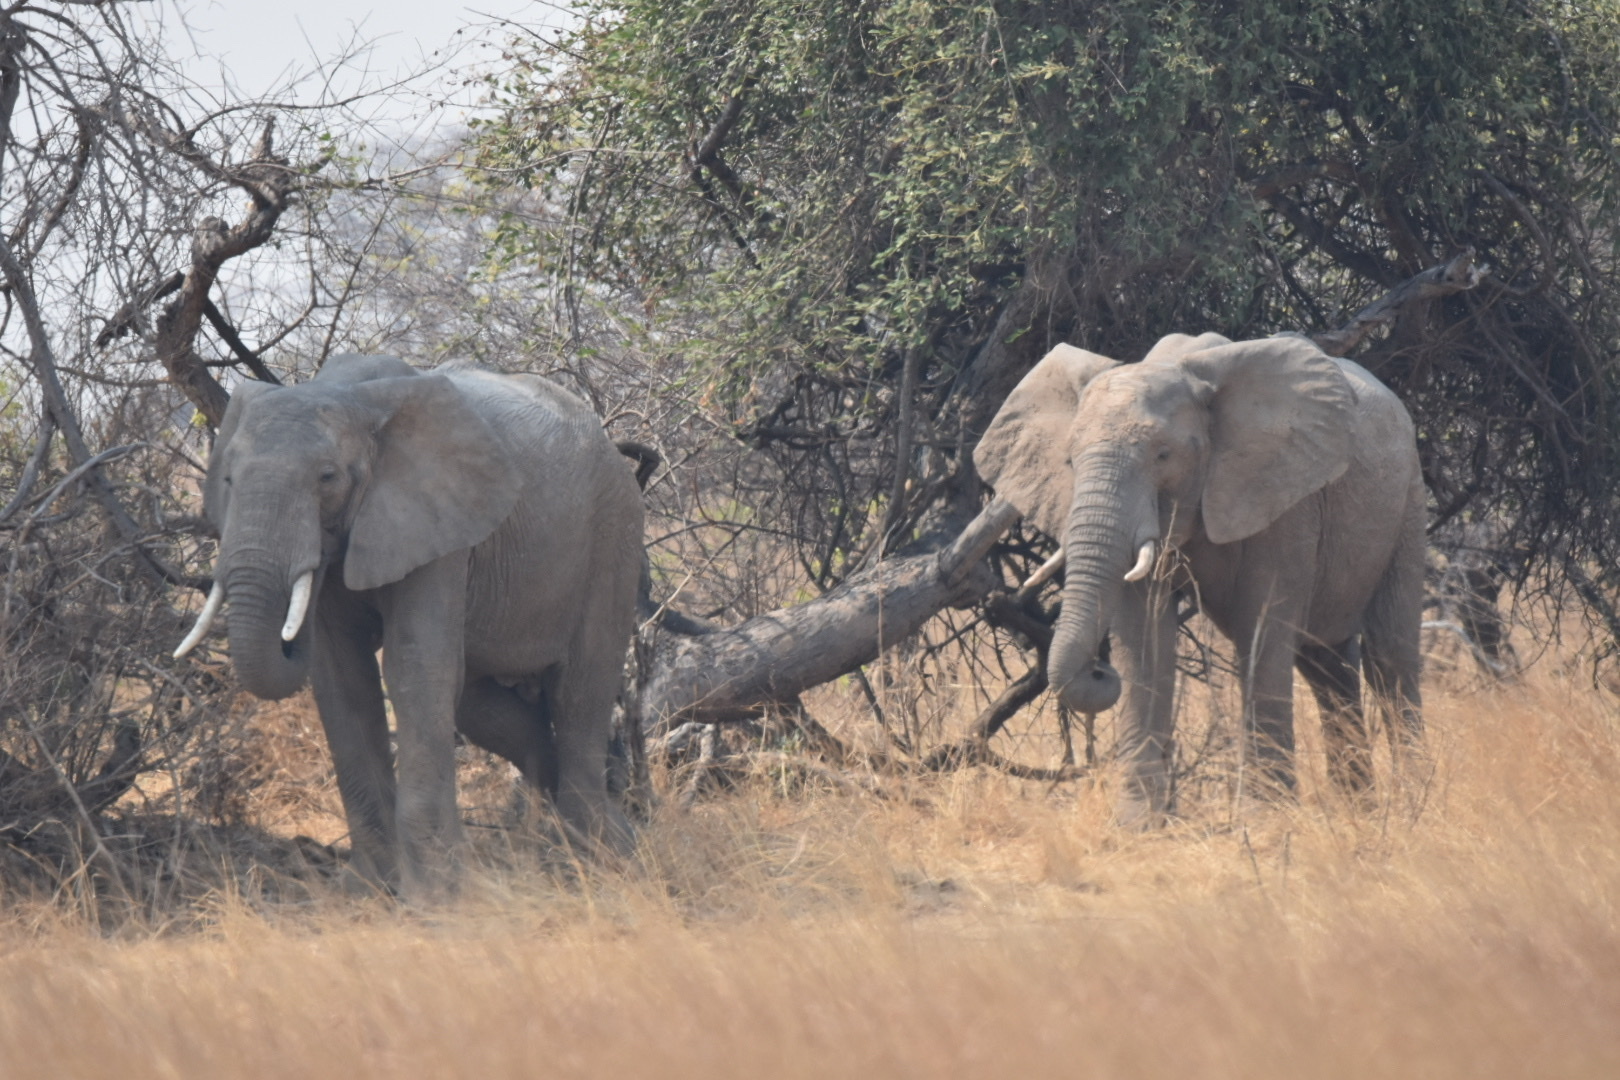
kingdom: Animalia
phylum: Chordata
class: Mammalia
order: Proboscidea
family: Elephantidae
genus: Loxodonta
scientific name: Loxodonta africana
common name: African elephant
